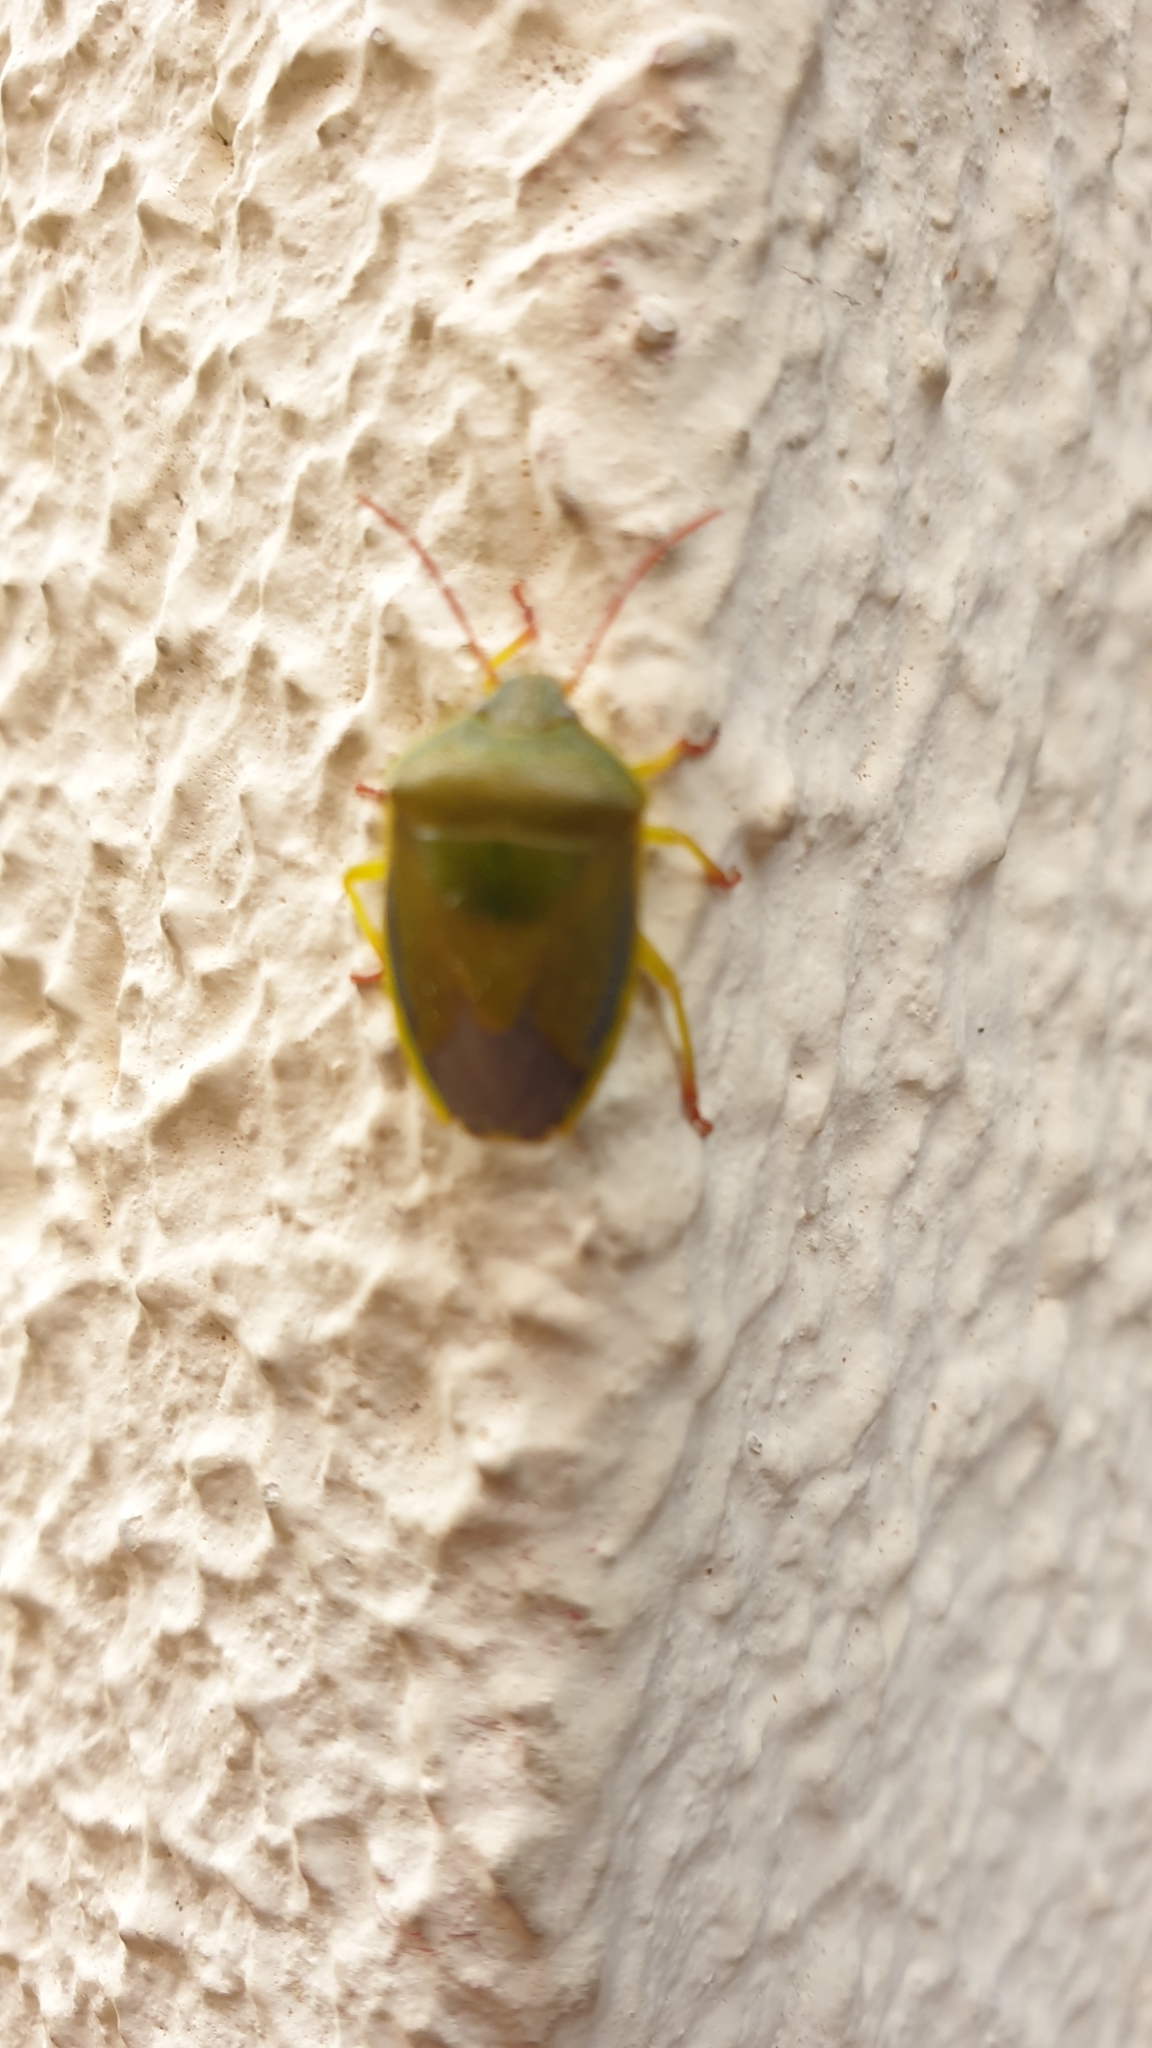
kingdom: Animalia
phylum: Arthropoda
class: Insecta
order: Hemiptera
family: Pentatomidae
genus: Piezodorus
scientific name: Piezodorus lituratus
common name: Stink bug
